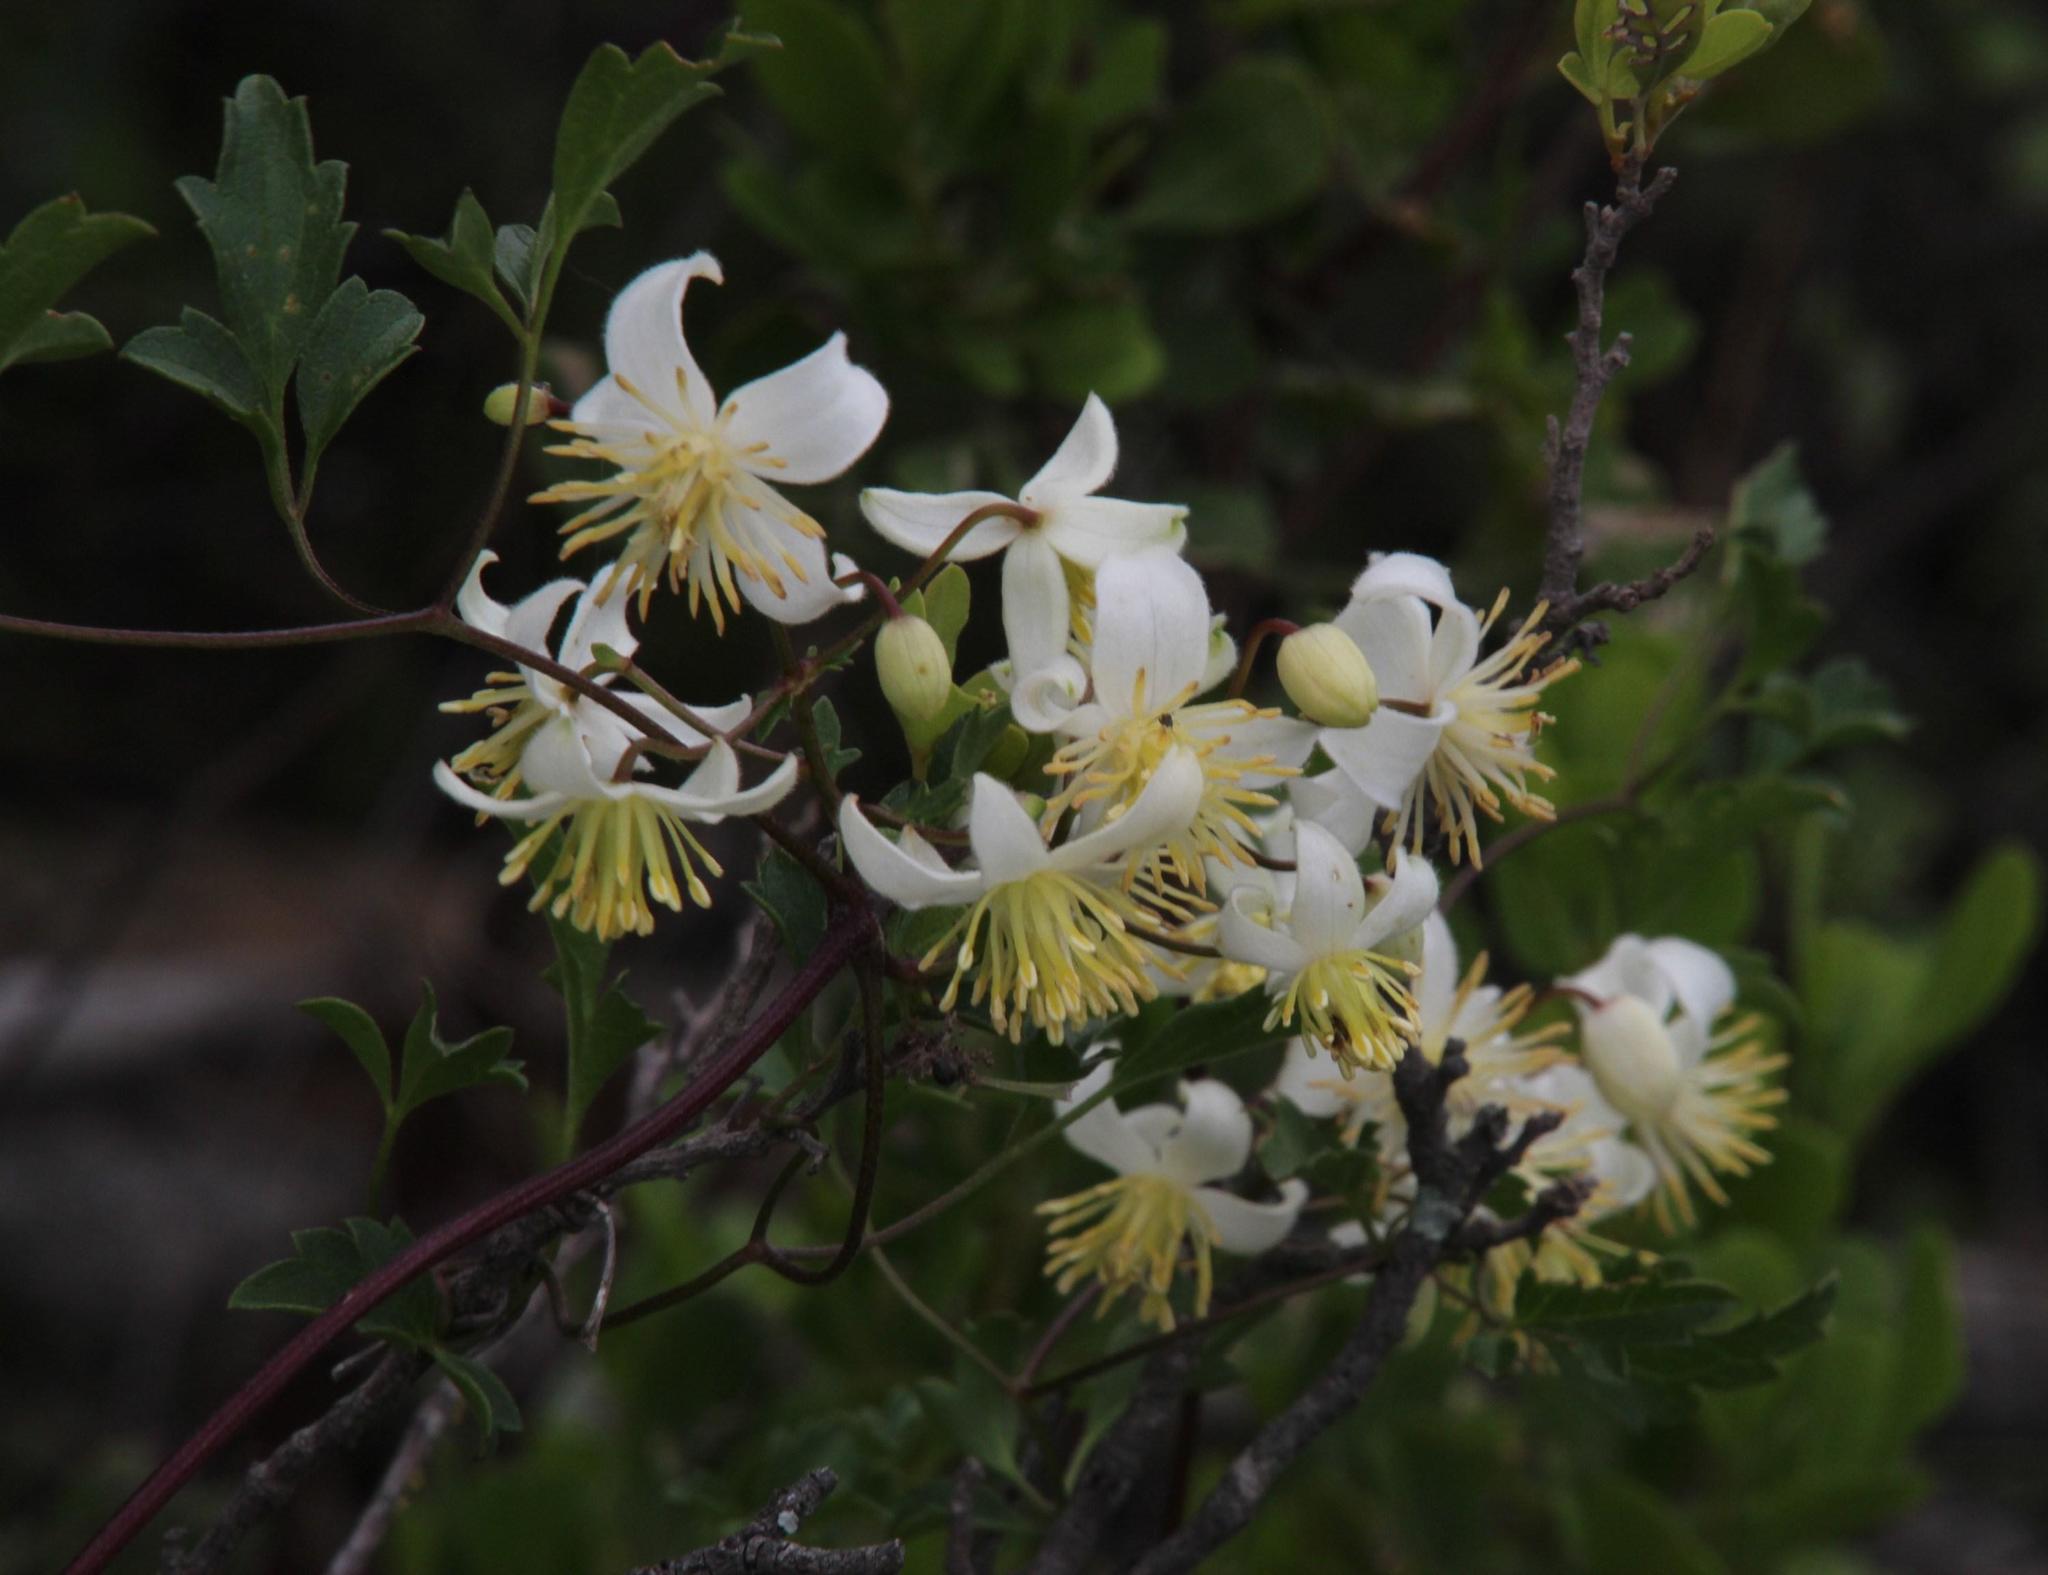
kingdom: Plantae
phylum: Tracheophyta
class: Magnoliopsida
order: Ranunculales
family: Ranunculaceae
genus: Clematis
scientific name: Clematis brachiata
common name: Traveler's-joy
